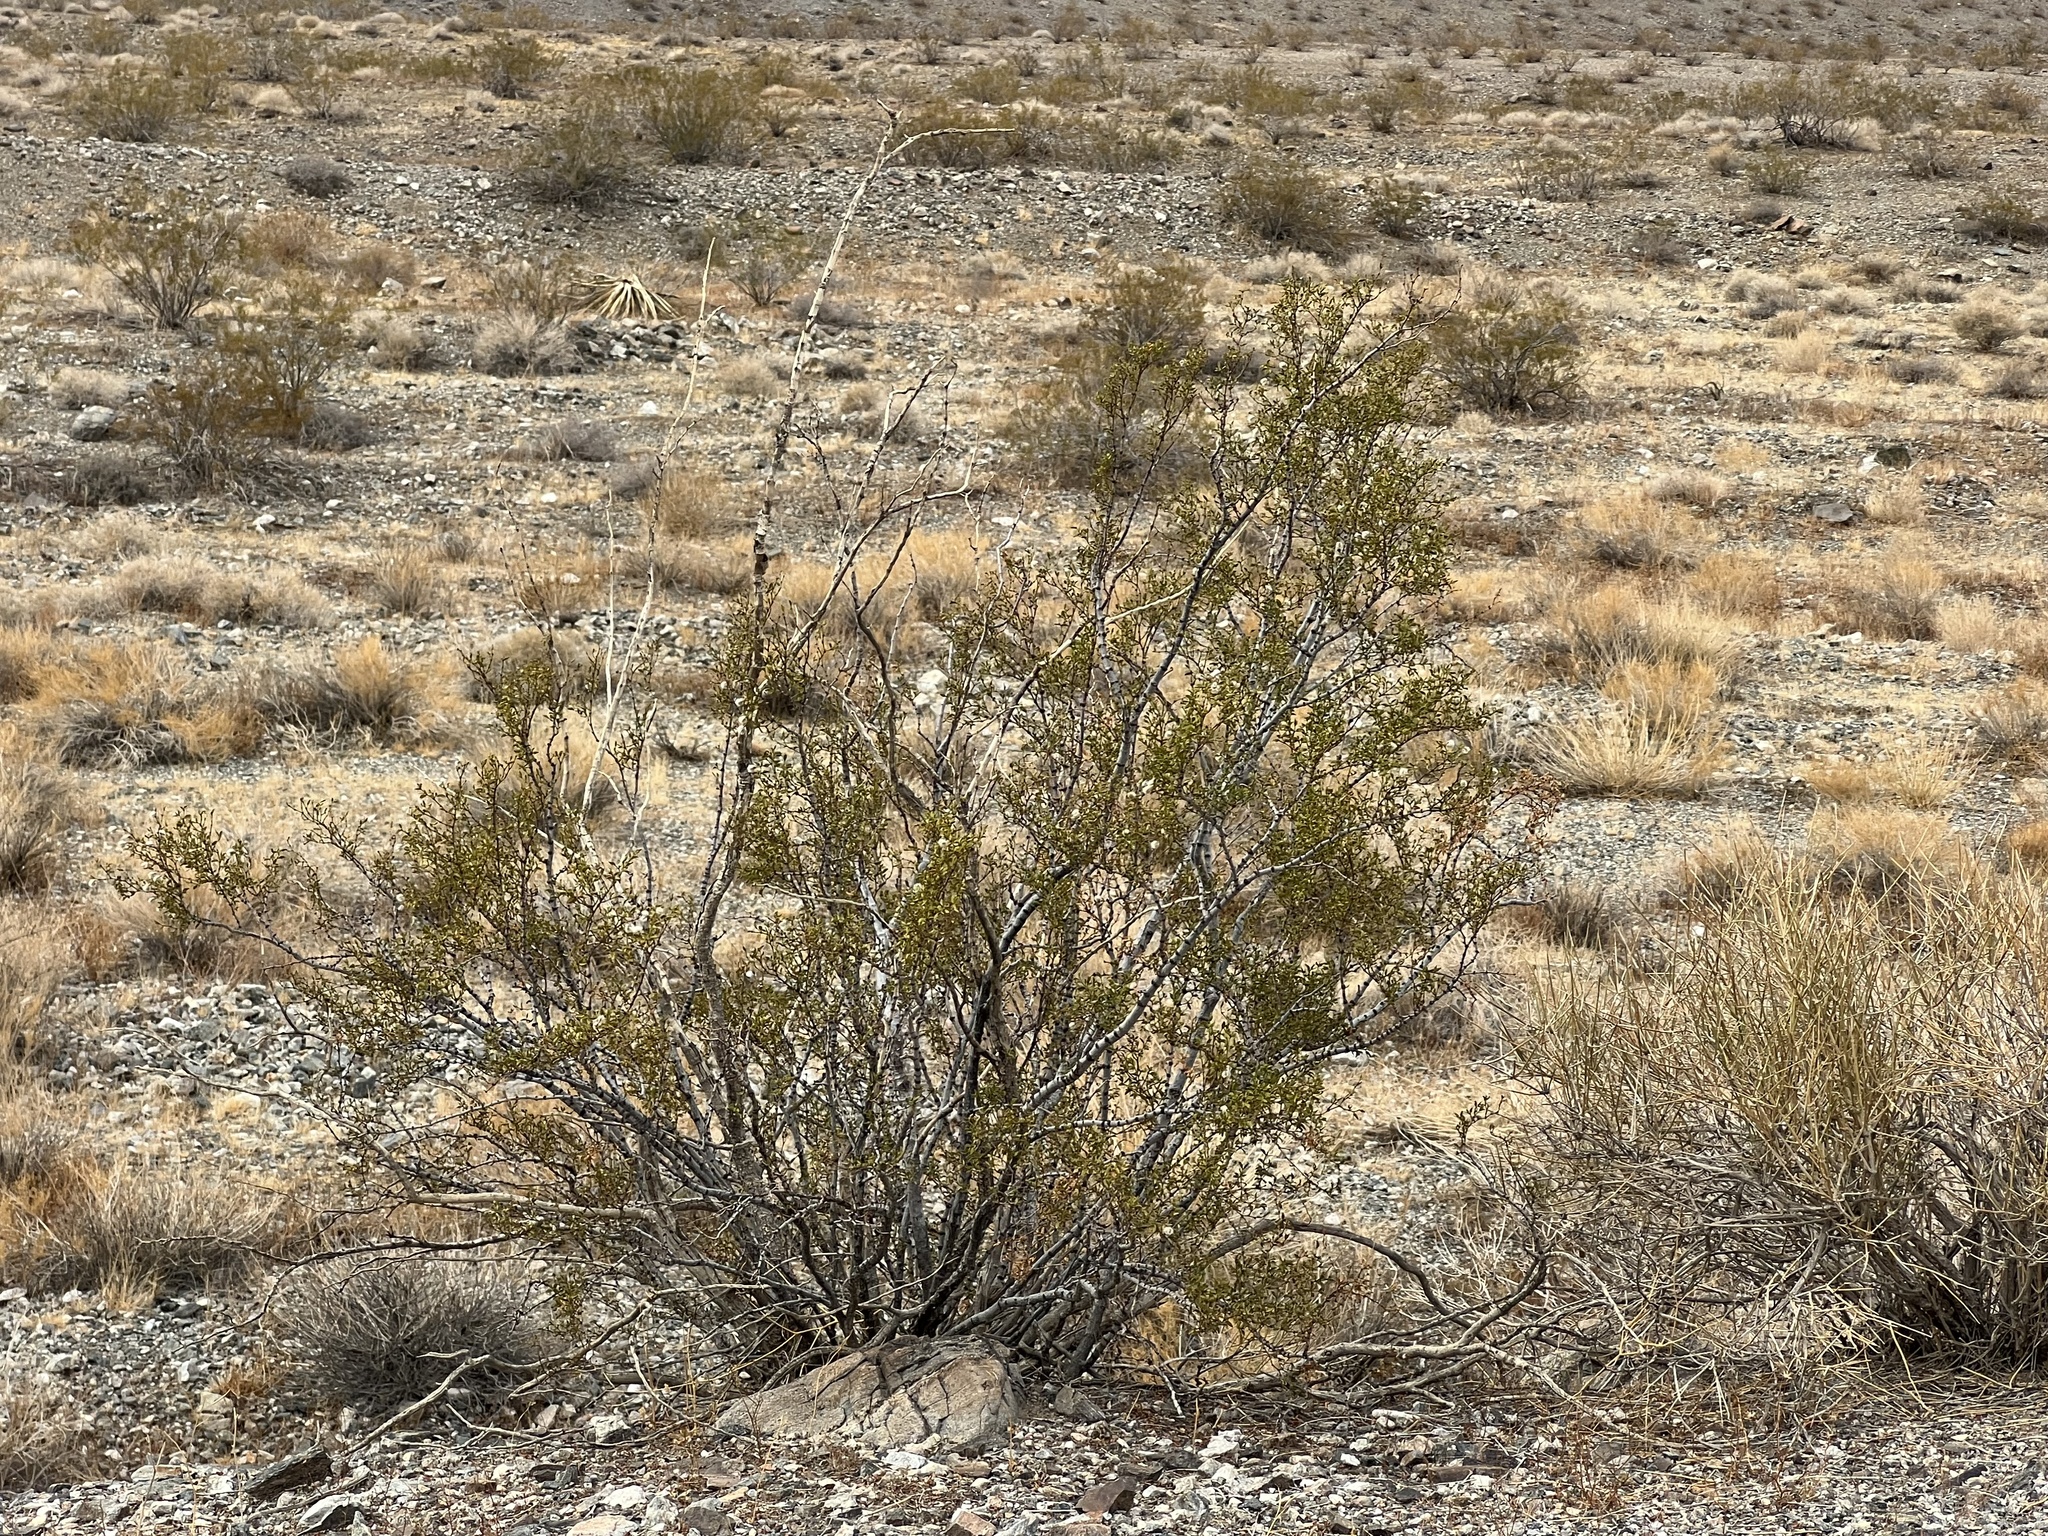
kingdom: Plantae
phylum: Tracheophyta
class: Magnoliopsida
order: Zygophyllales
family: Zygophyllaceae
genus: Larrea
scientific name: Larrea tridentata
